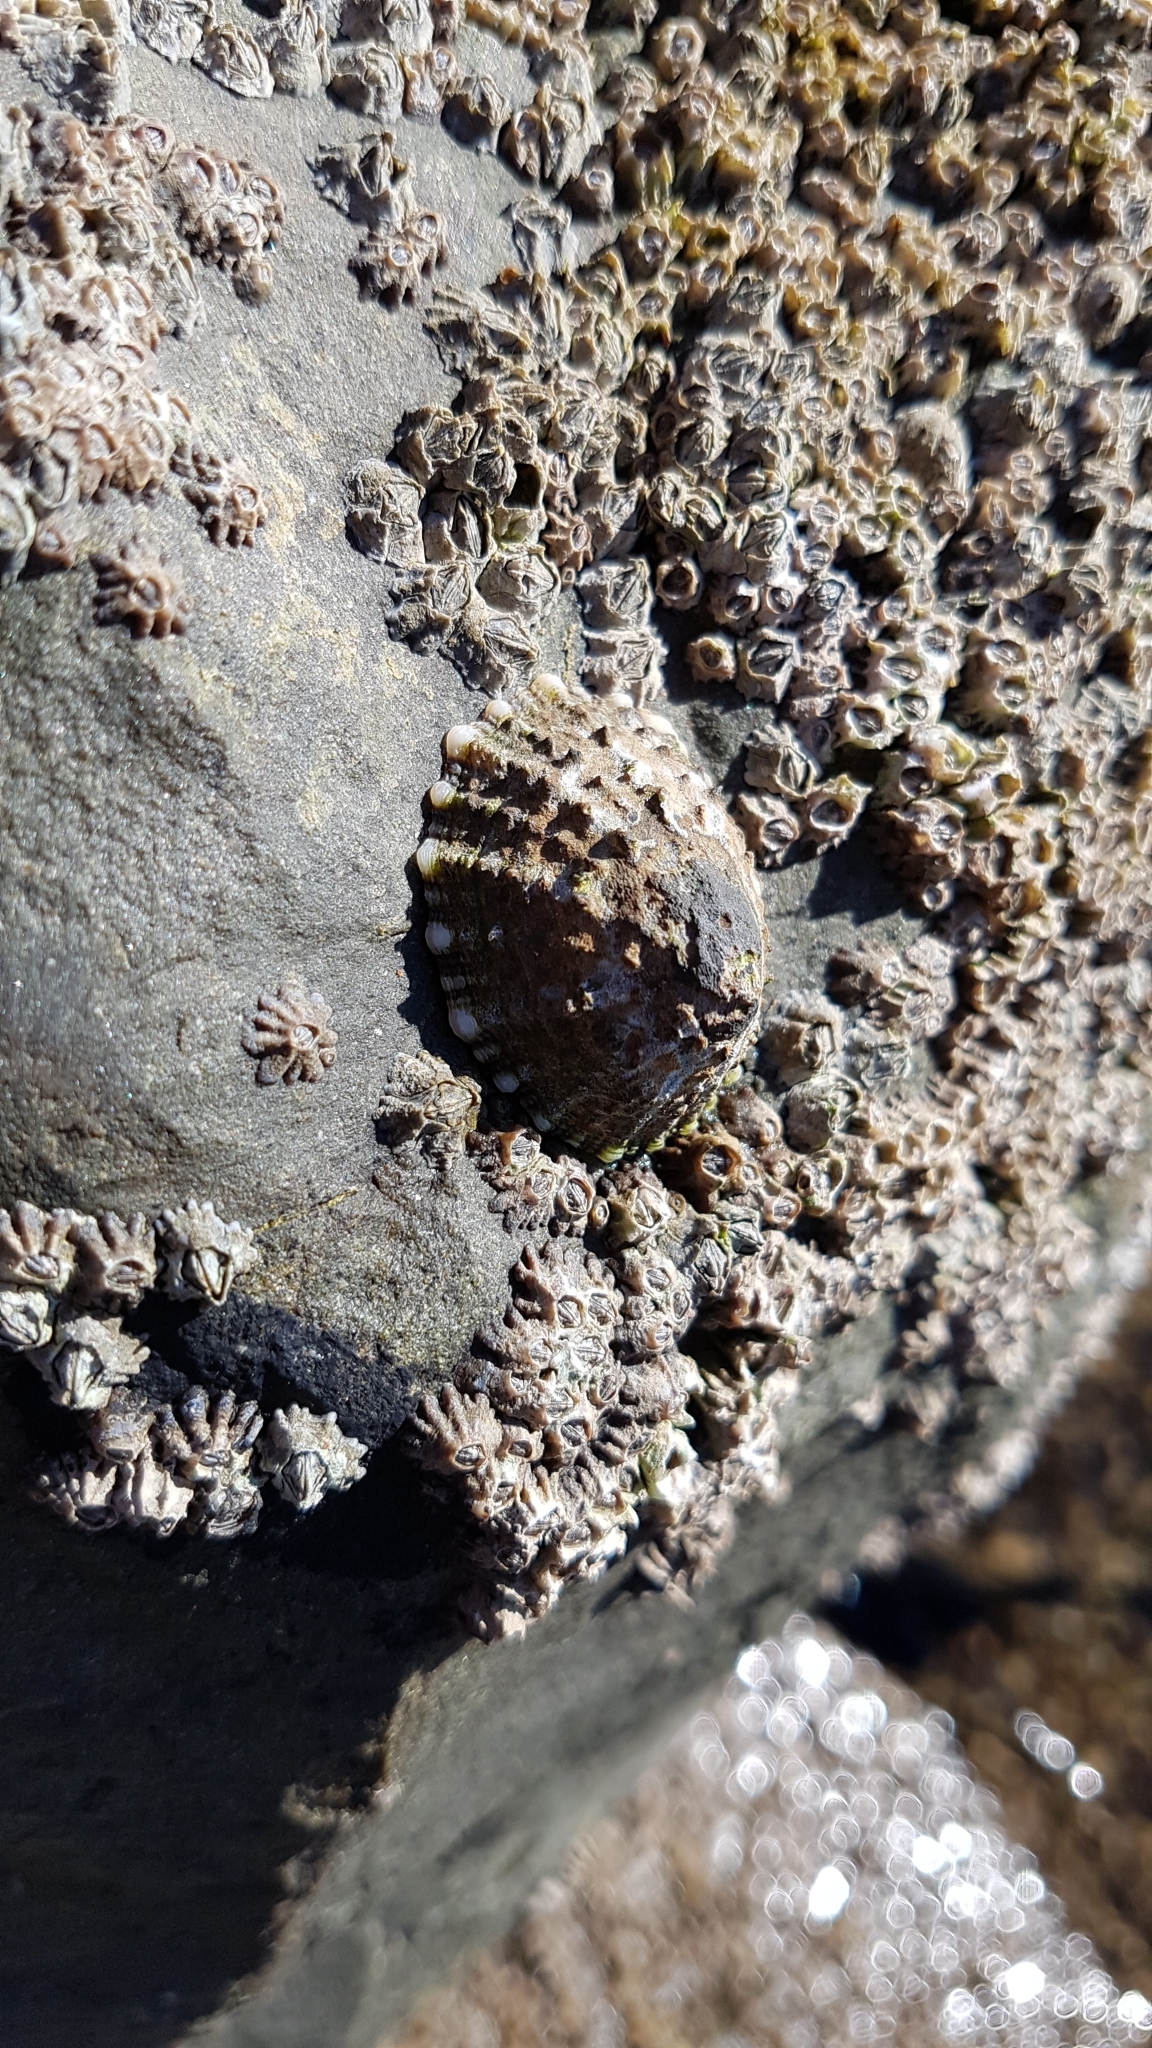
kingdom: Animalia
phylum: Mollusca
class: Gastropoda
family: Nacellidae
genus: Cellana
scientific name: Cellana ornata
